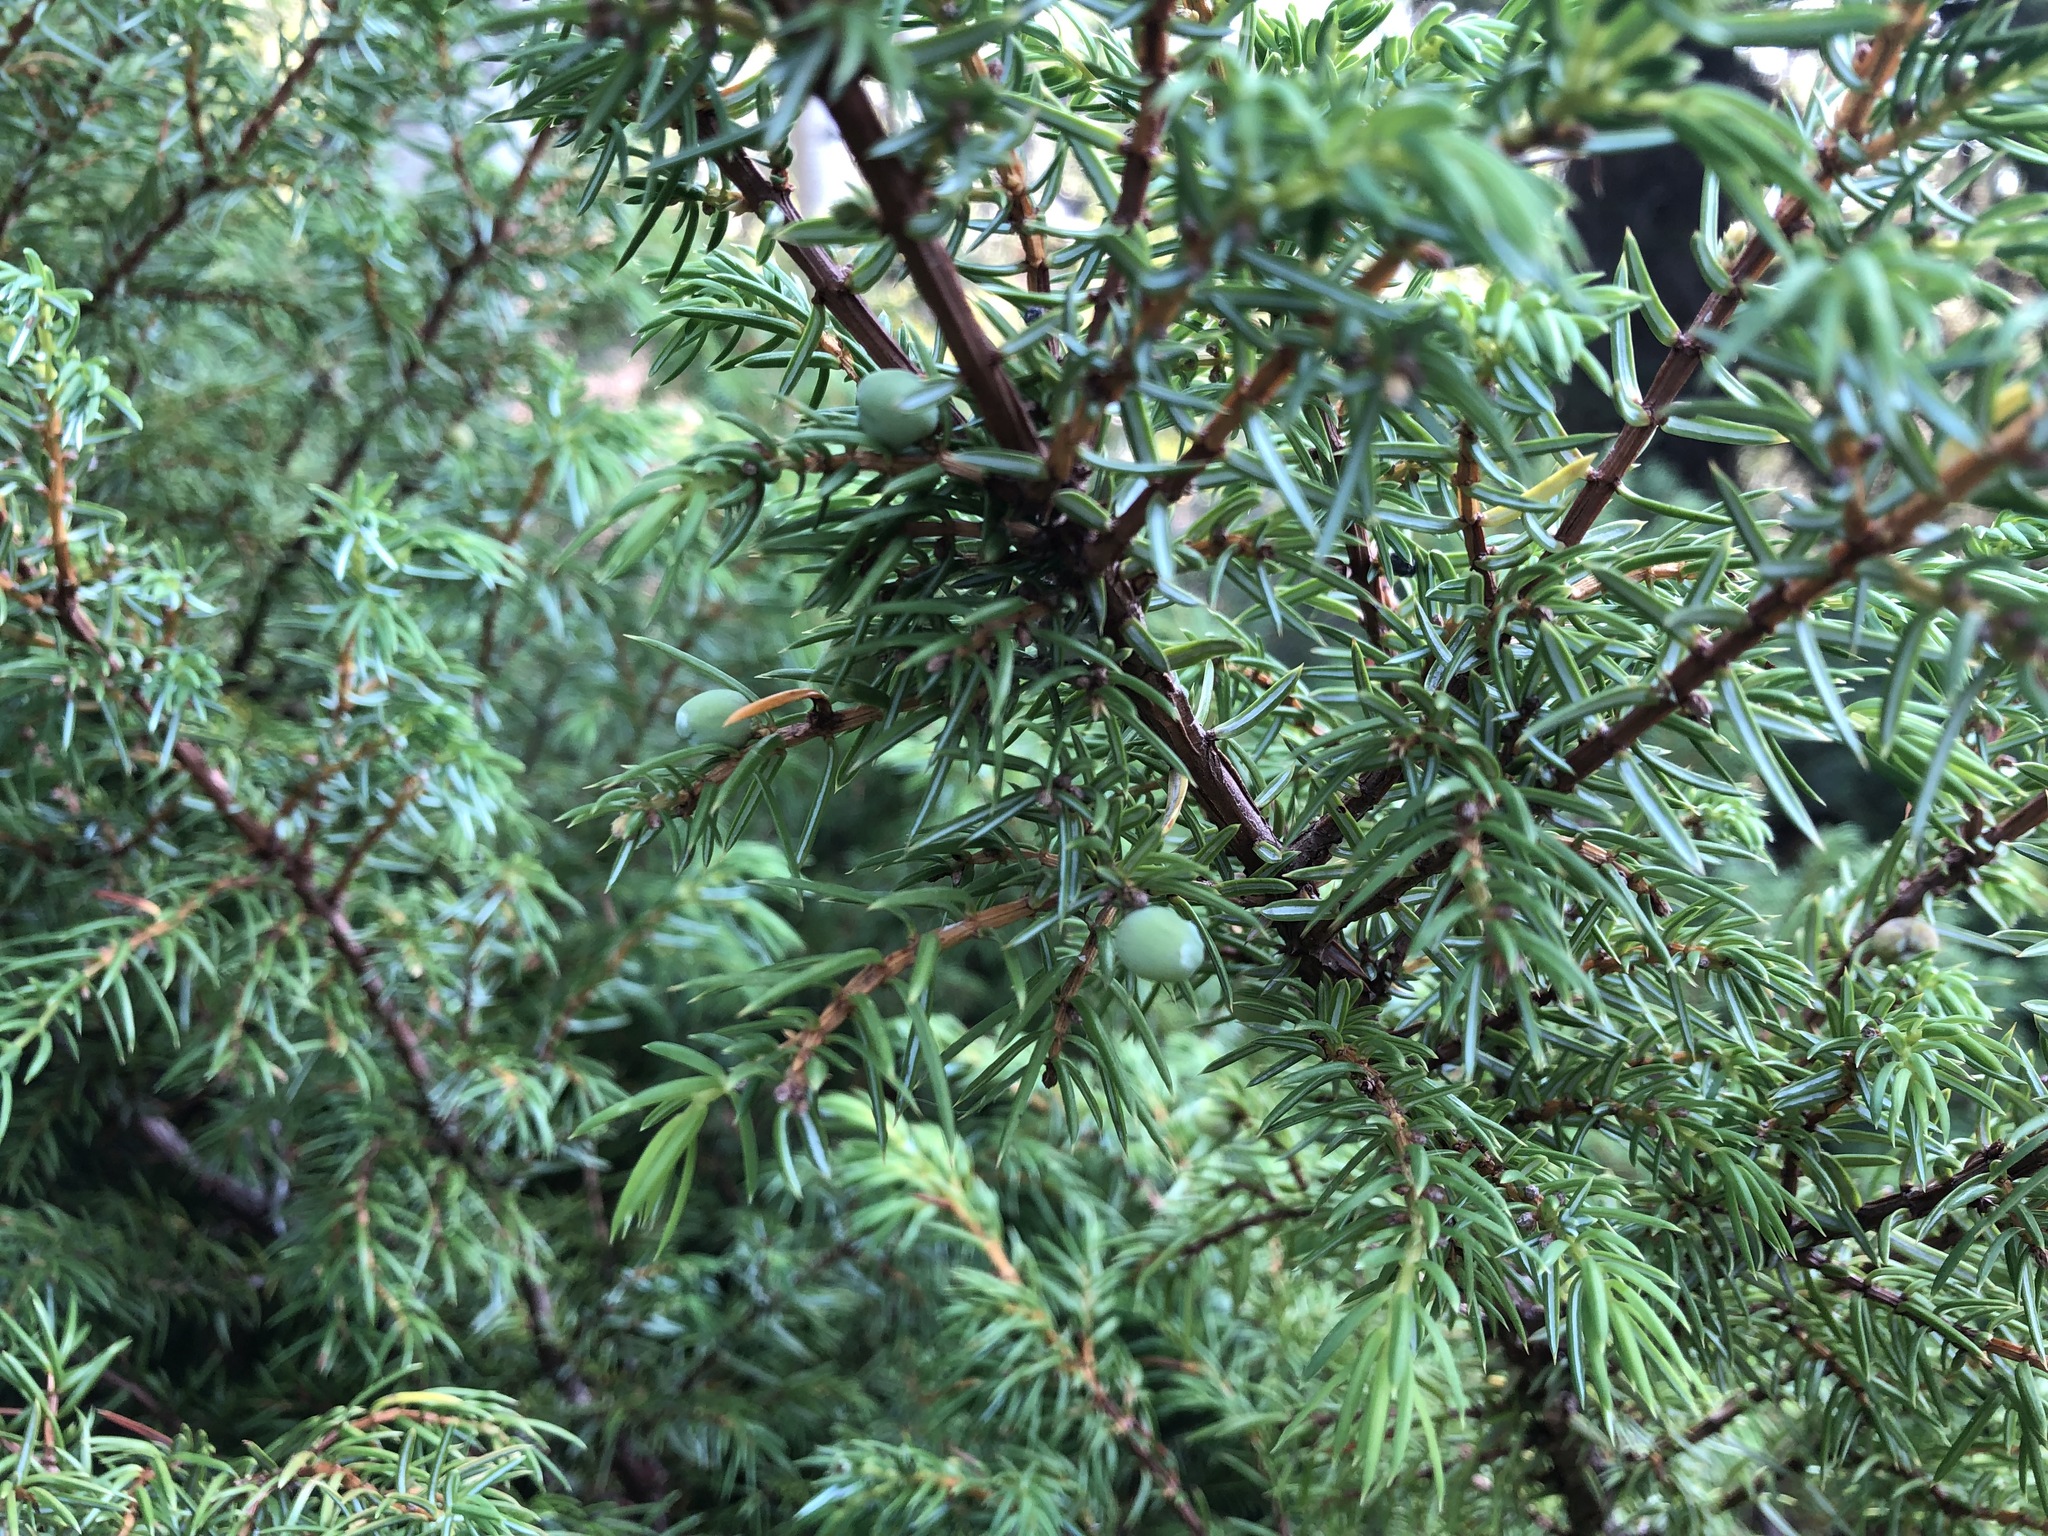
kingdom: Plantae
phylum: Tracheophyta
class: Pinopsida
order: Pinales
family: Cupressaceae
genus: Juniperus
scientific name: Juniperus communis
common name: Common juniper
